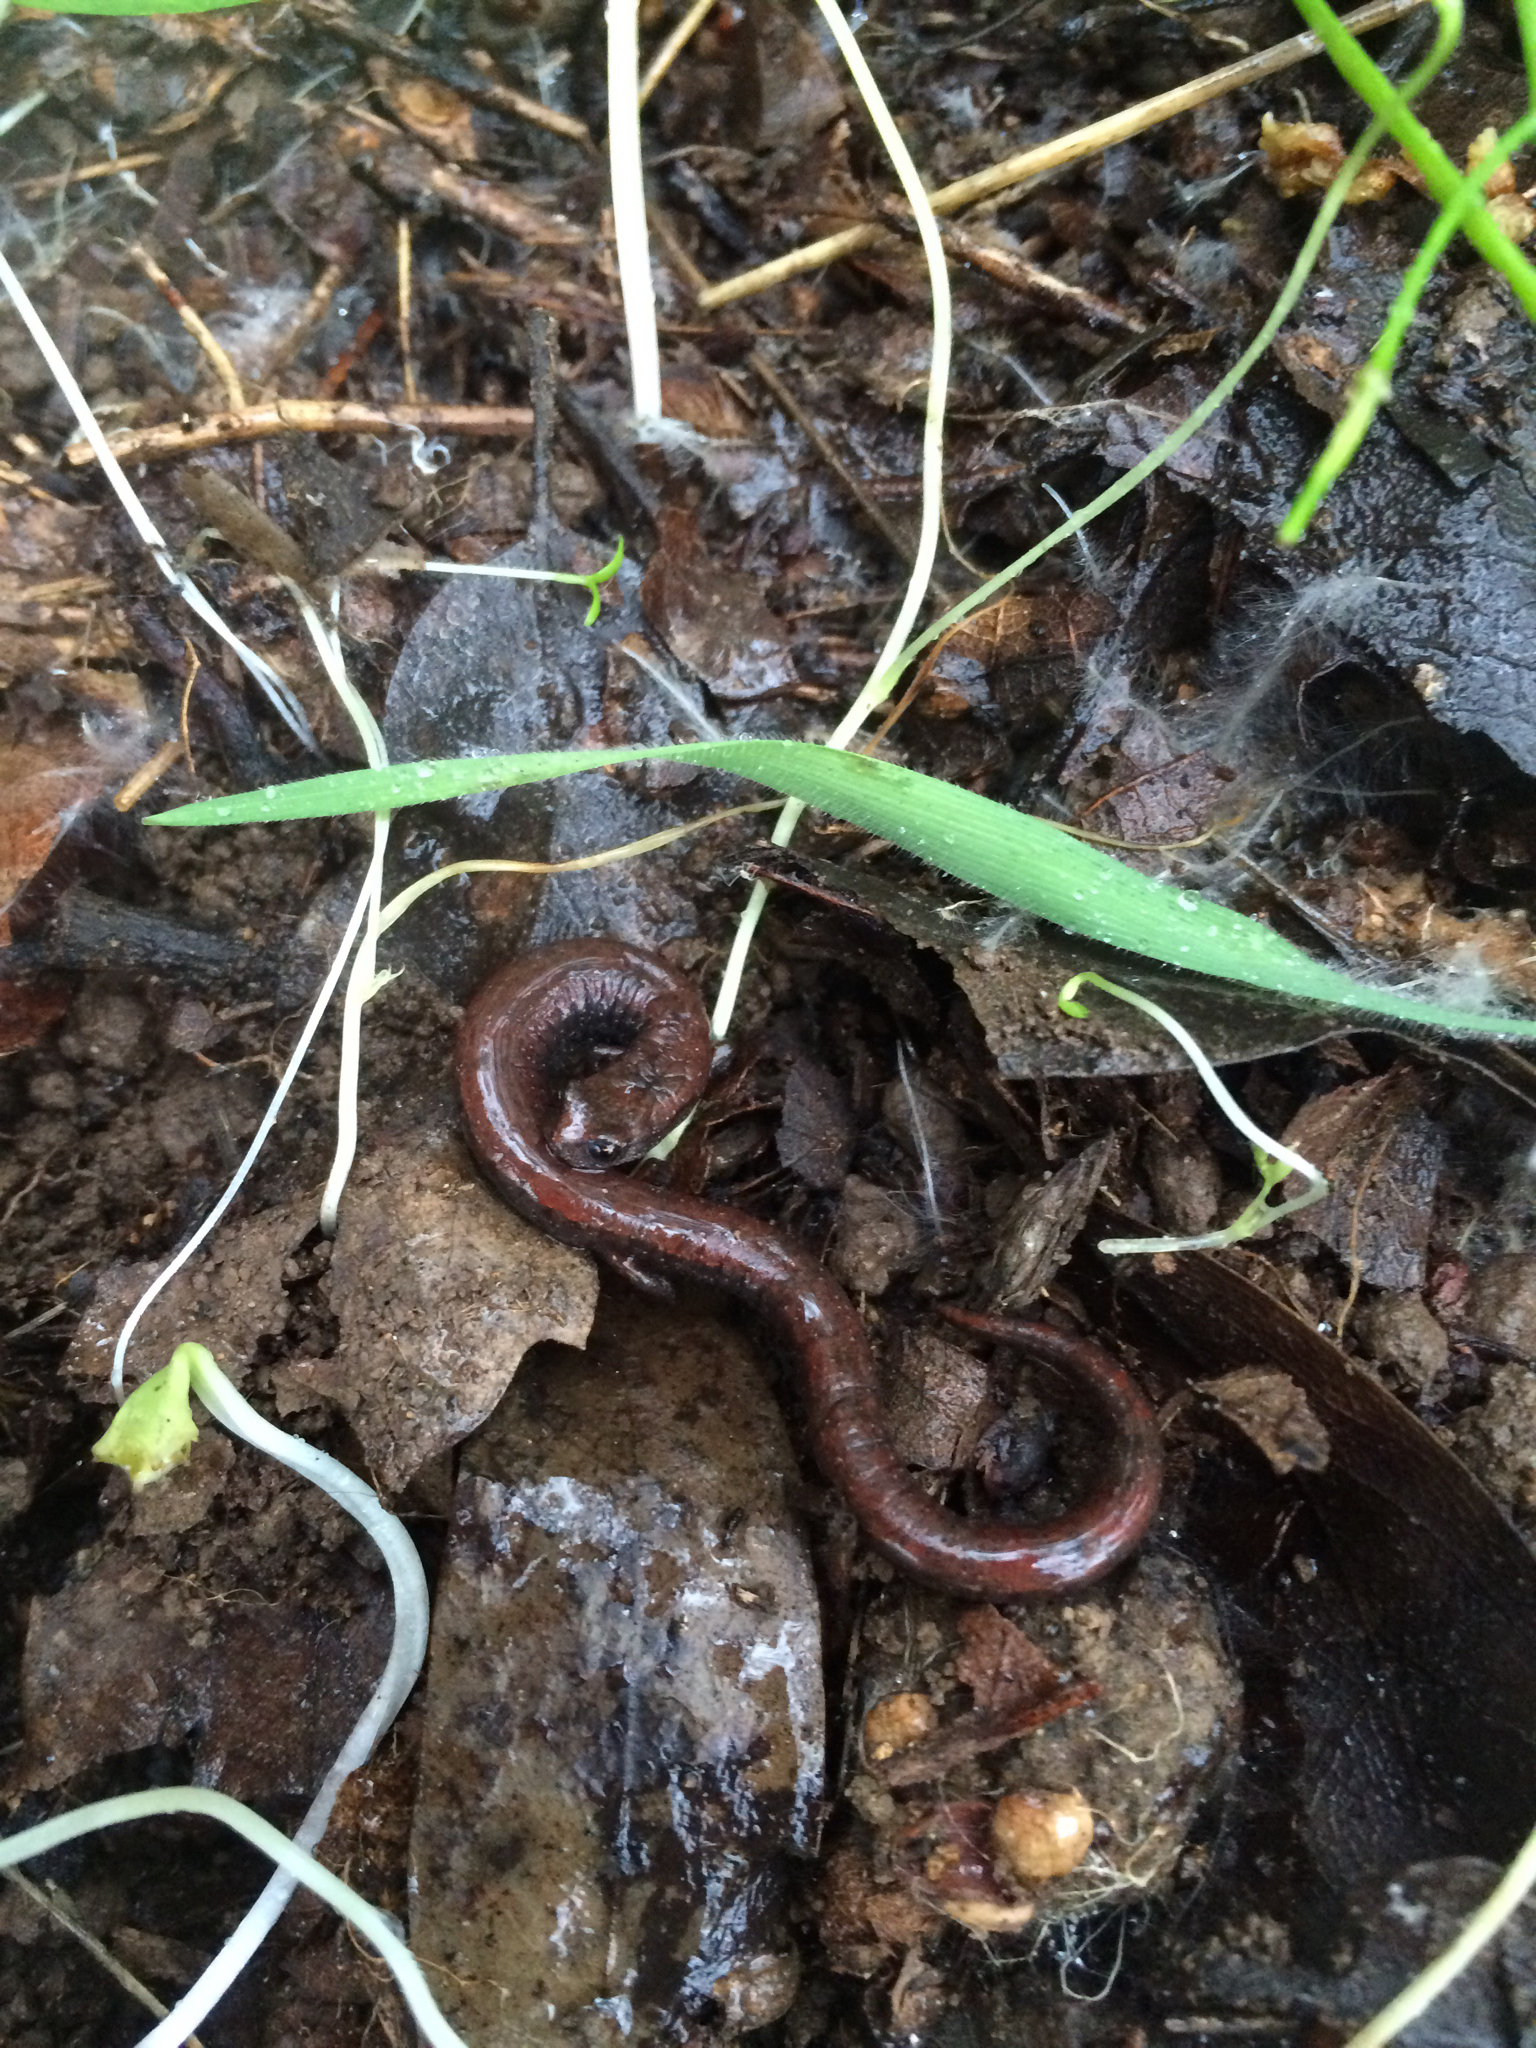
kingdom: Animalia
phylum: Chordata
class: Amphibia
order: Caudata
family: Plethodontidae
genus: Batrachoseps
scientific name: Batrachoseps attenuatus
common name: California slender salamander
